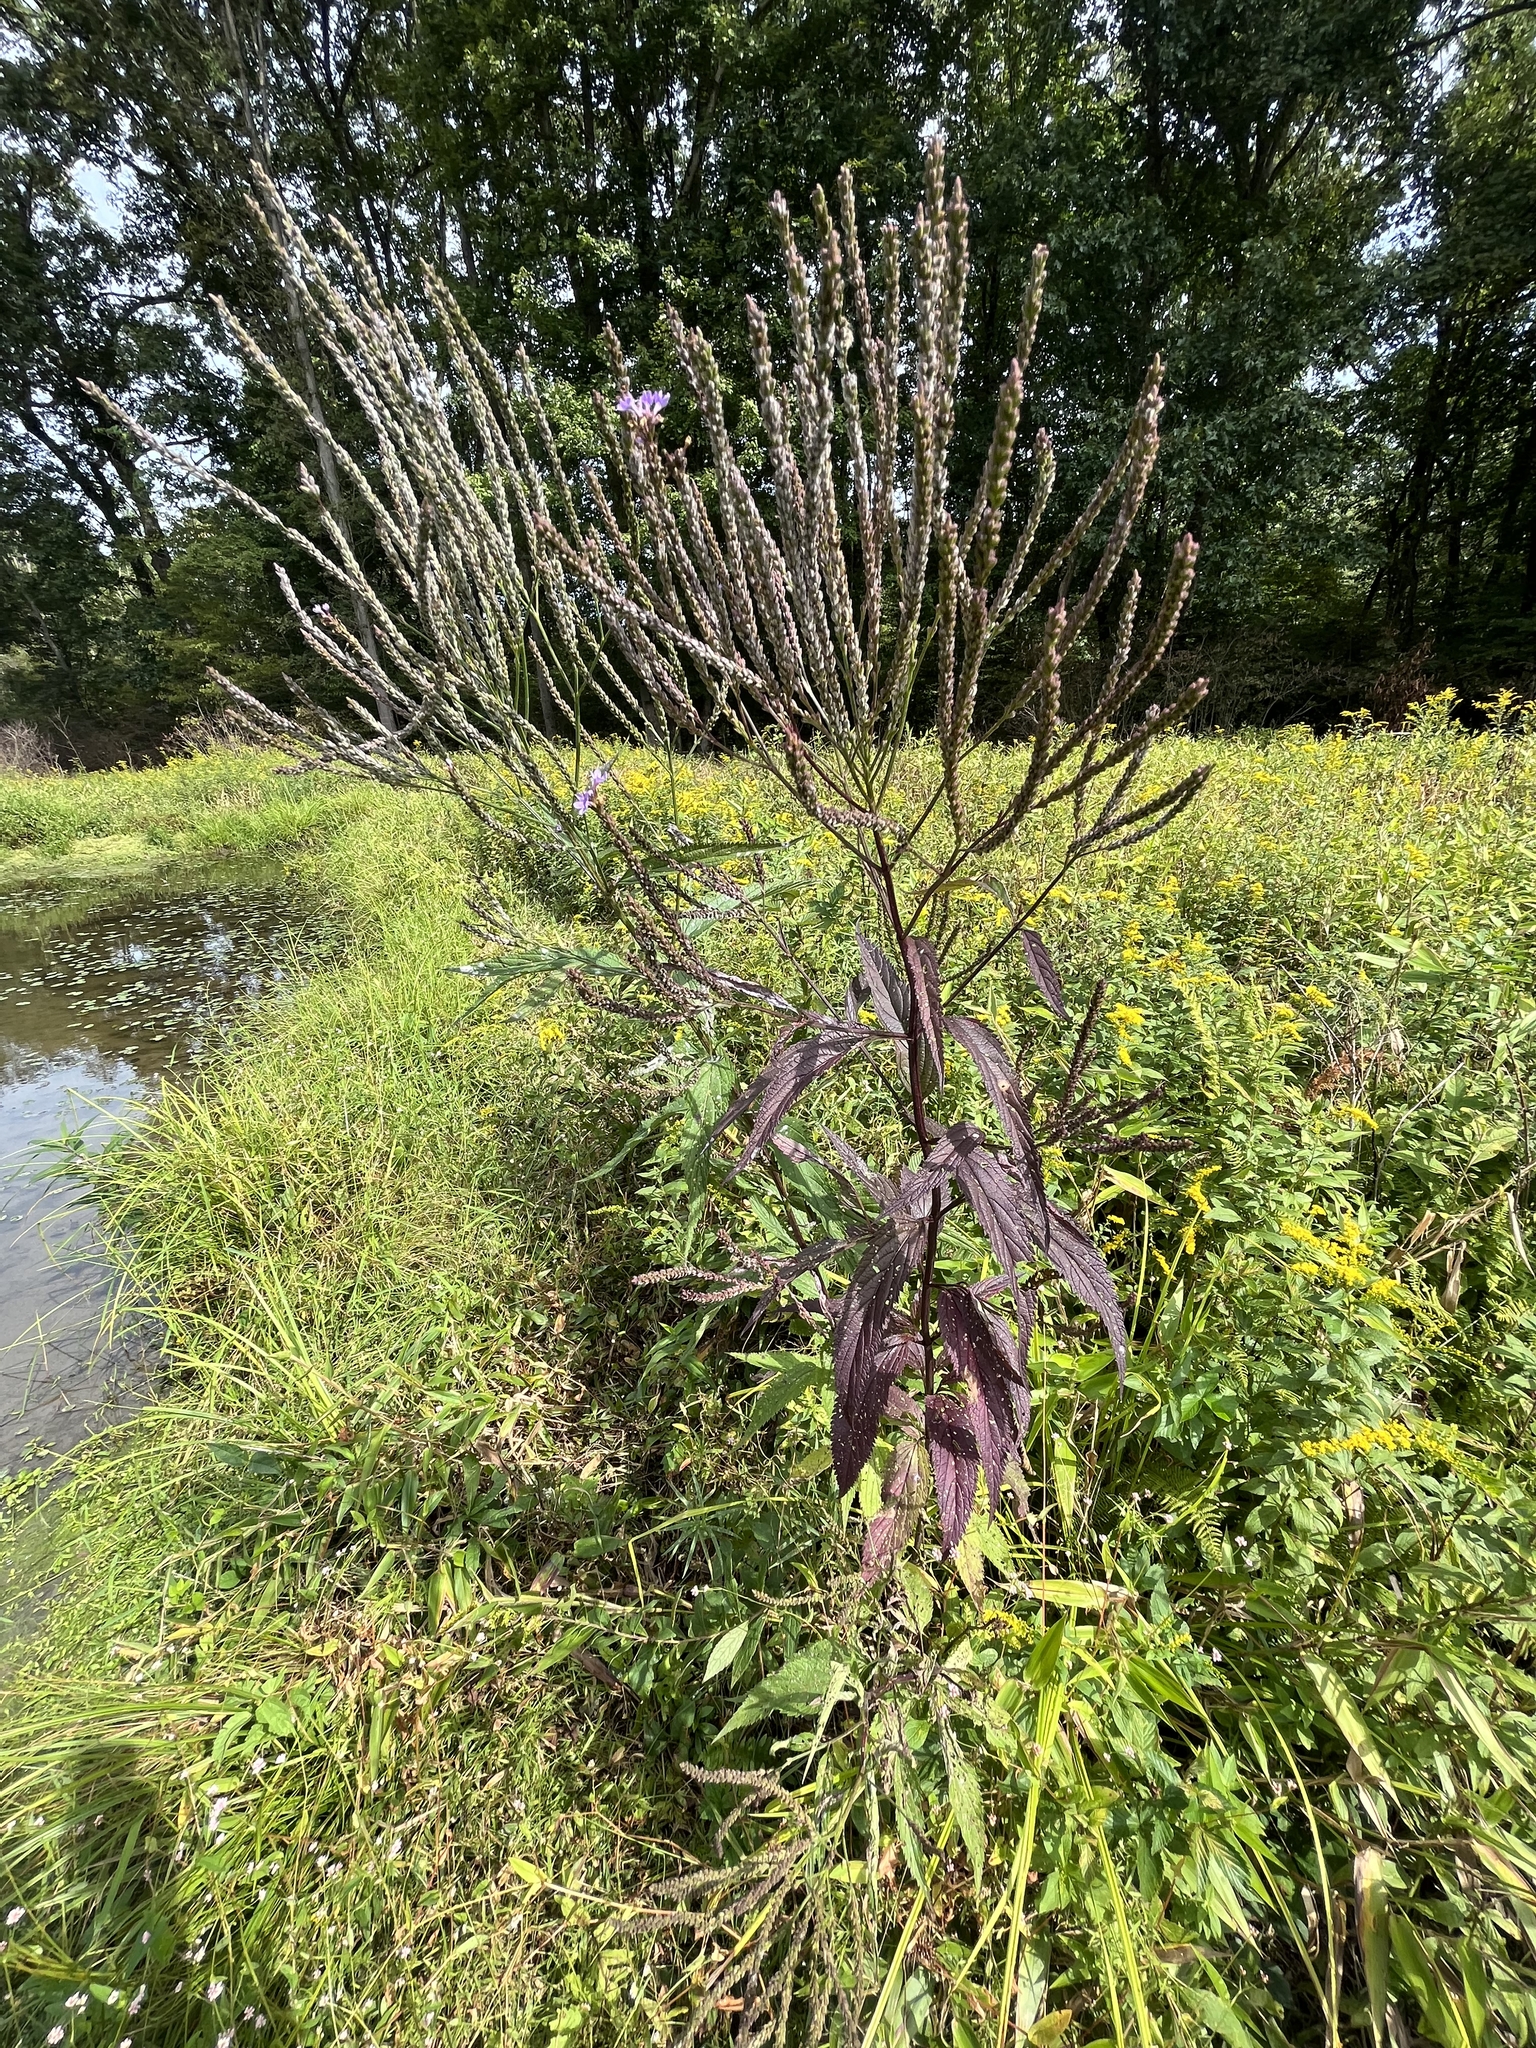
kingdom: Plantae
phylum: Tracheophyta
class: Magnoliopsida
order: Lamiales
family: Verbenaceae
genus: Verbena
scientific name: Verbena hastata
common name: American blue vervain
